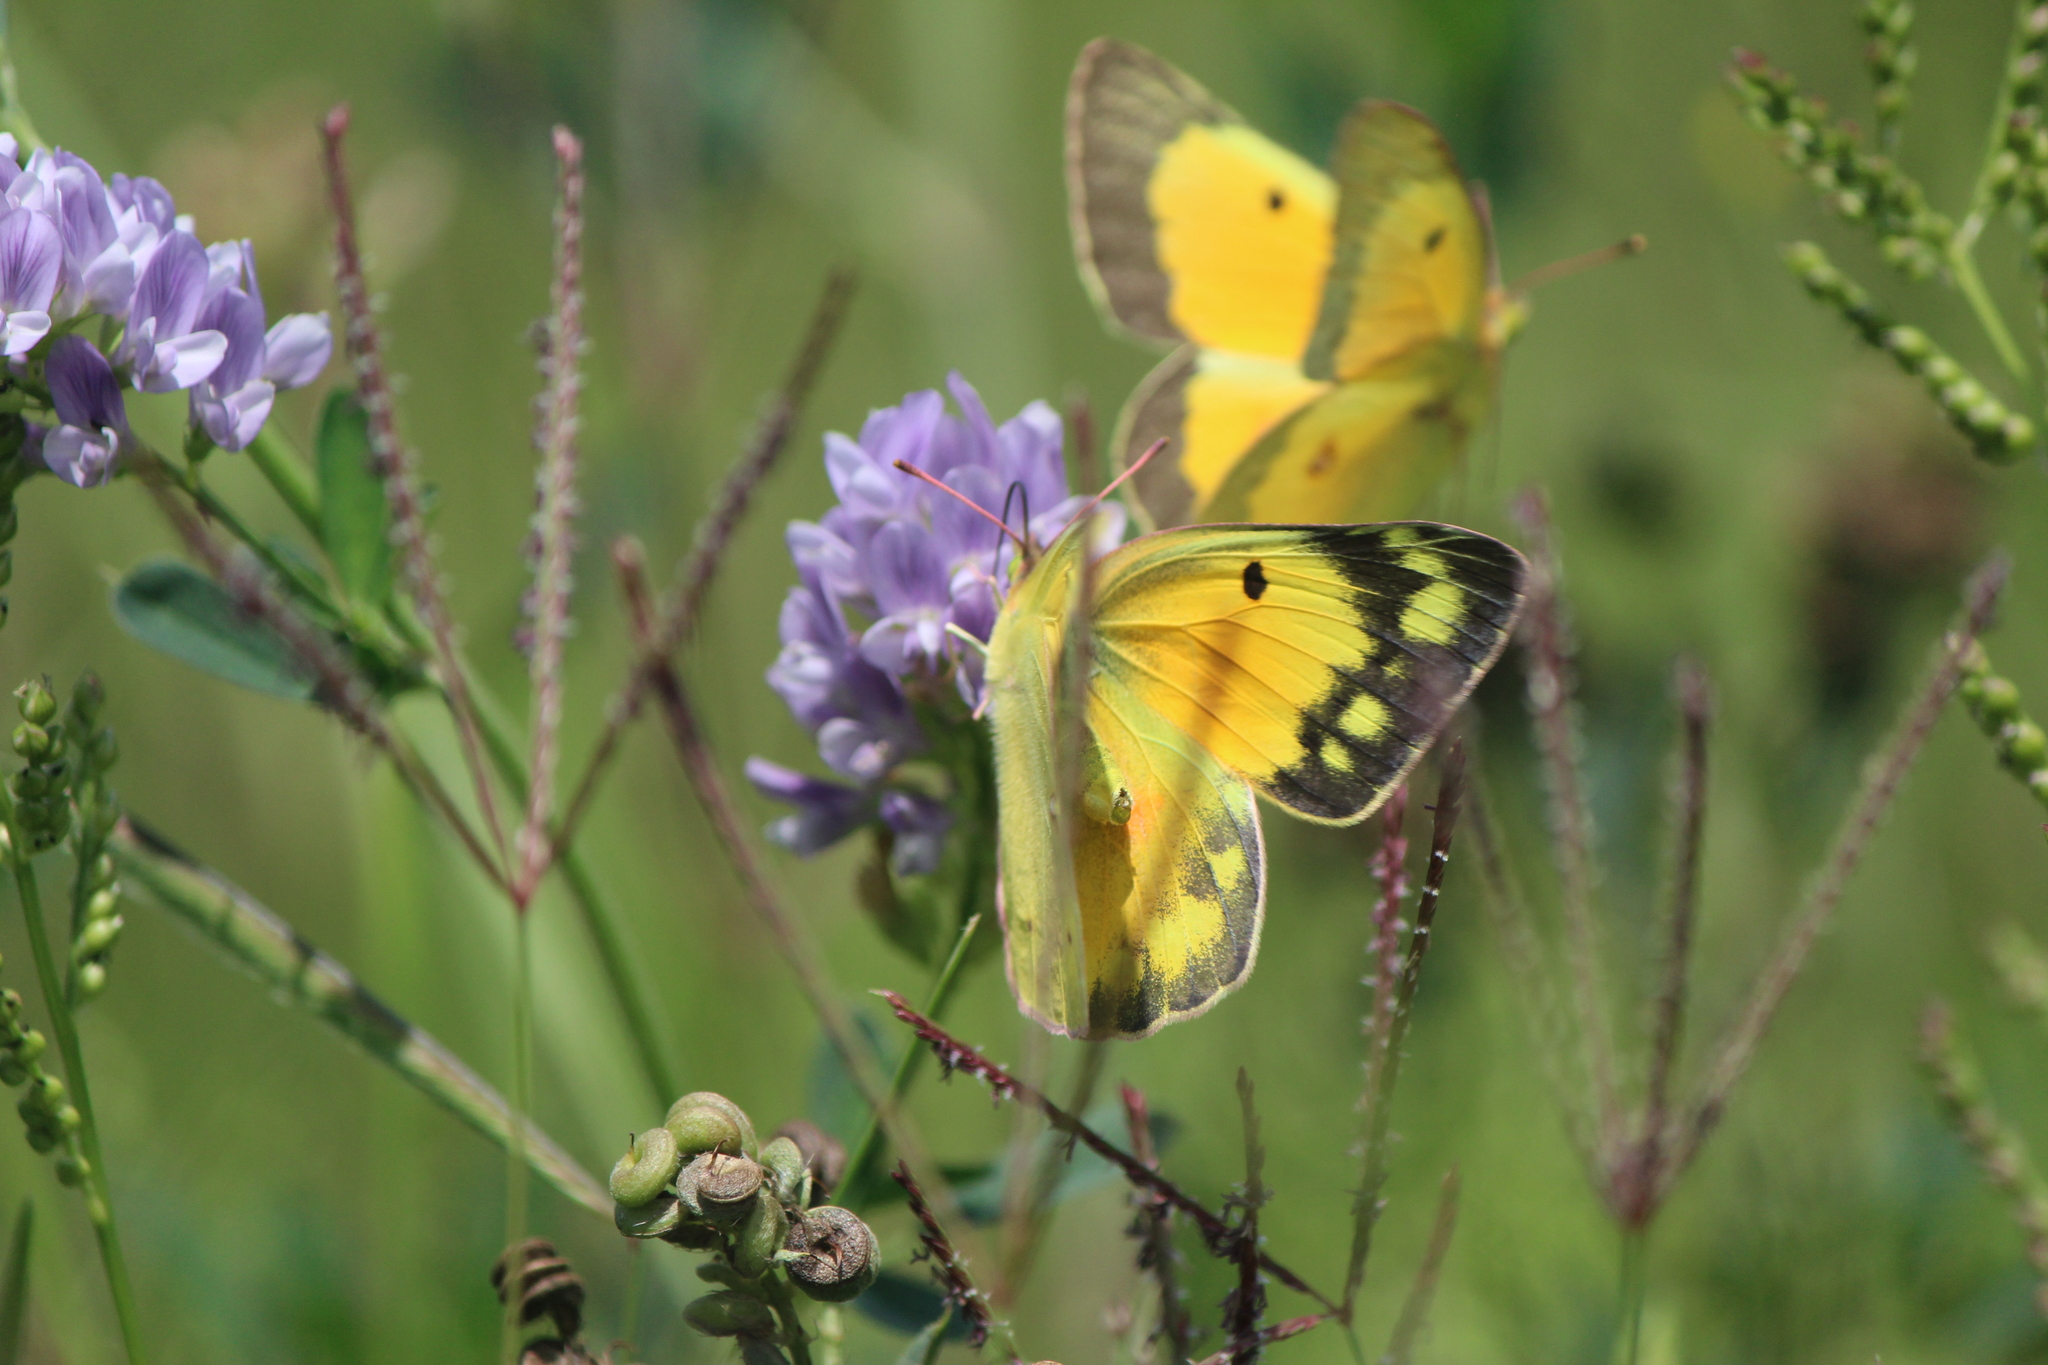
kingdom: Animalia
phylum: Arthropoda
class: Insecta
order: Lepidoptera
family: Pieridae
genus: Colias
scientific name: Colias eurytheme
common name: Alfalfa butterfly
